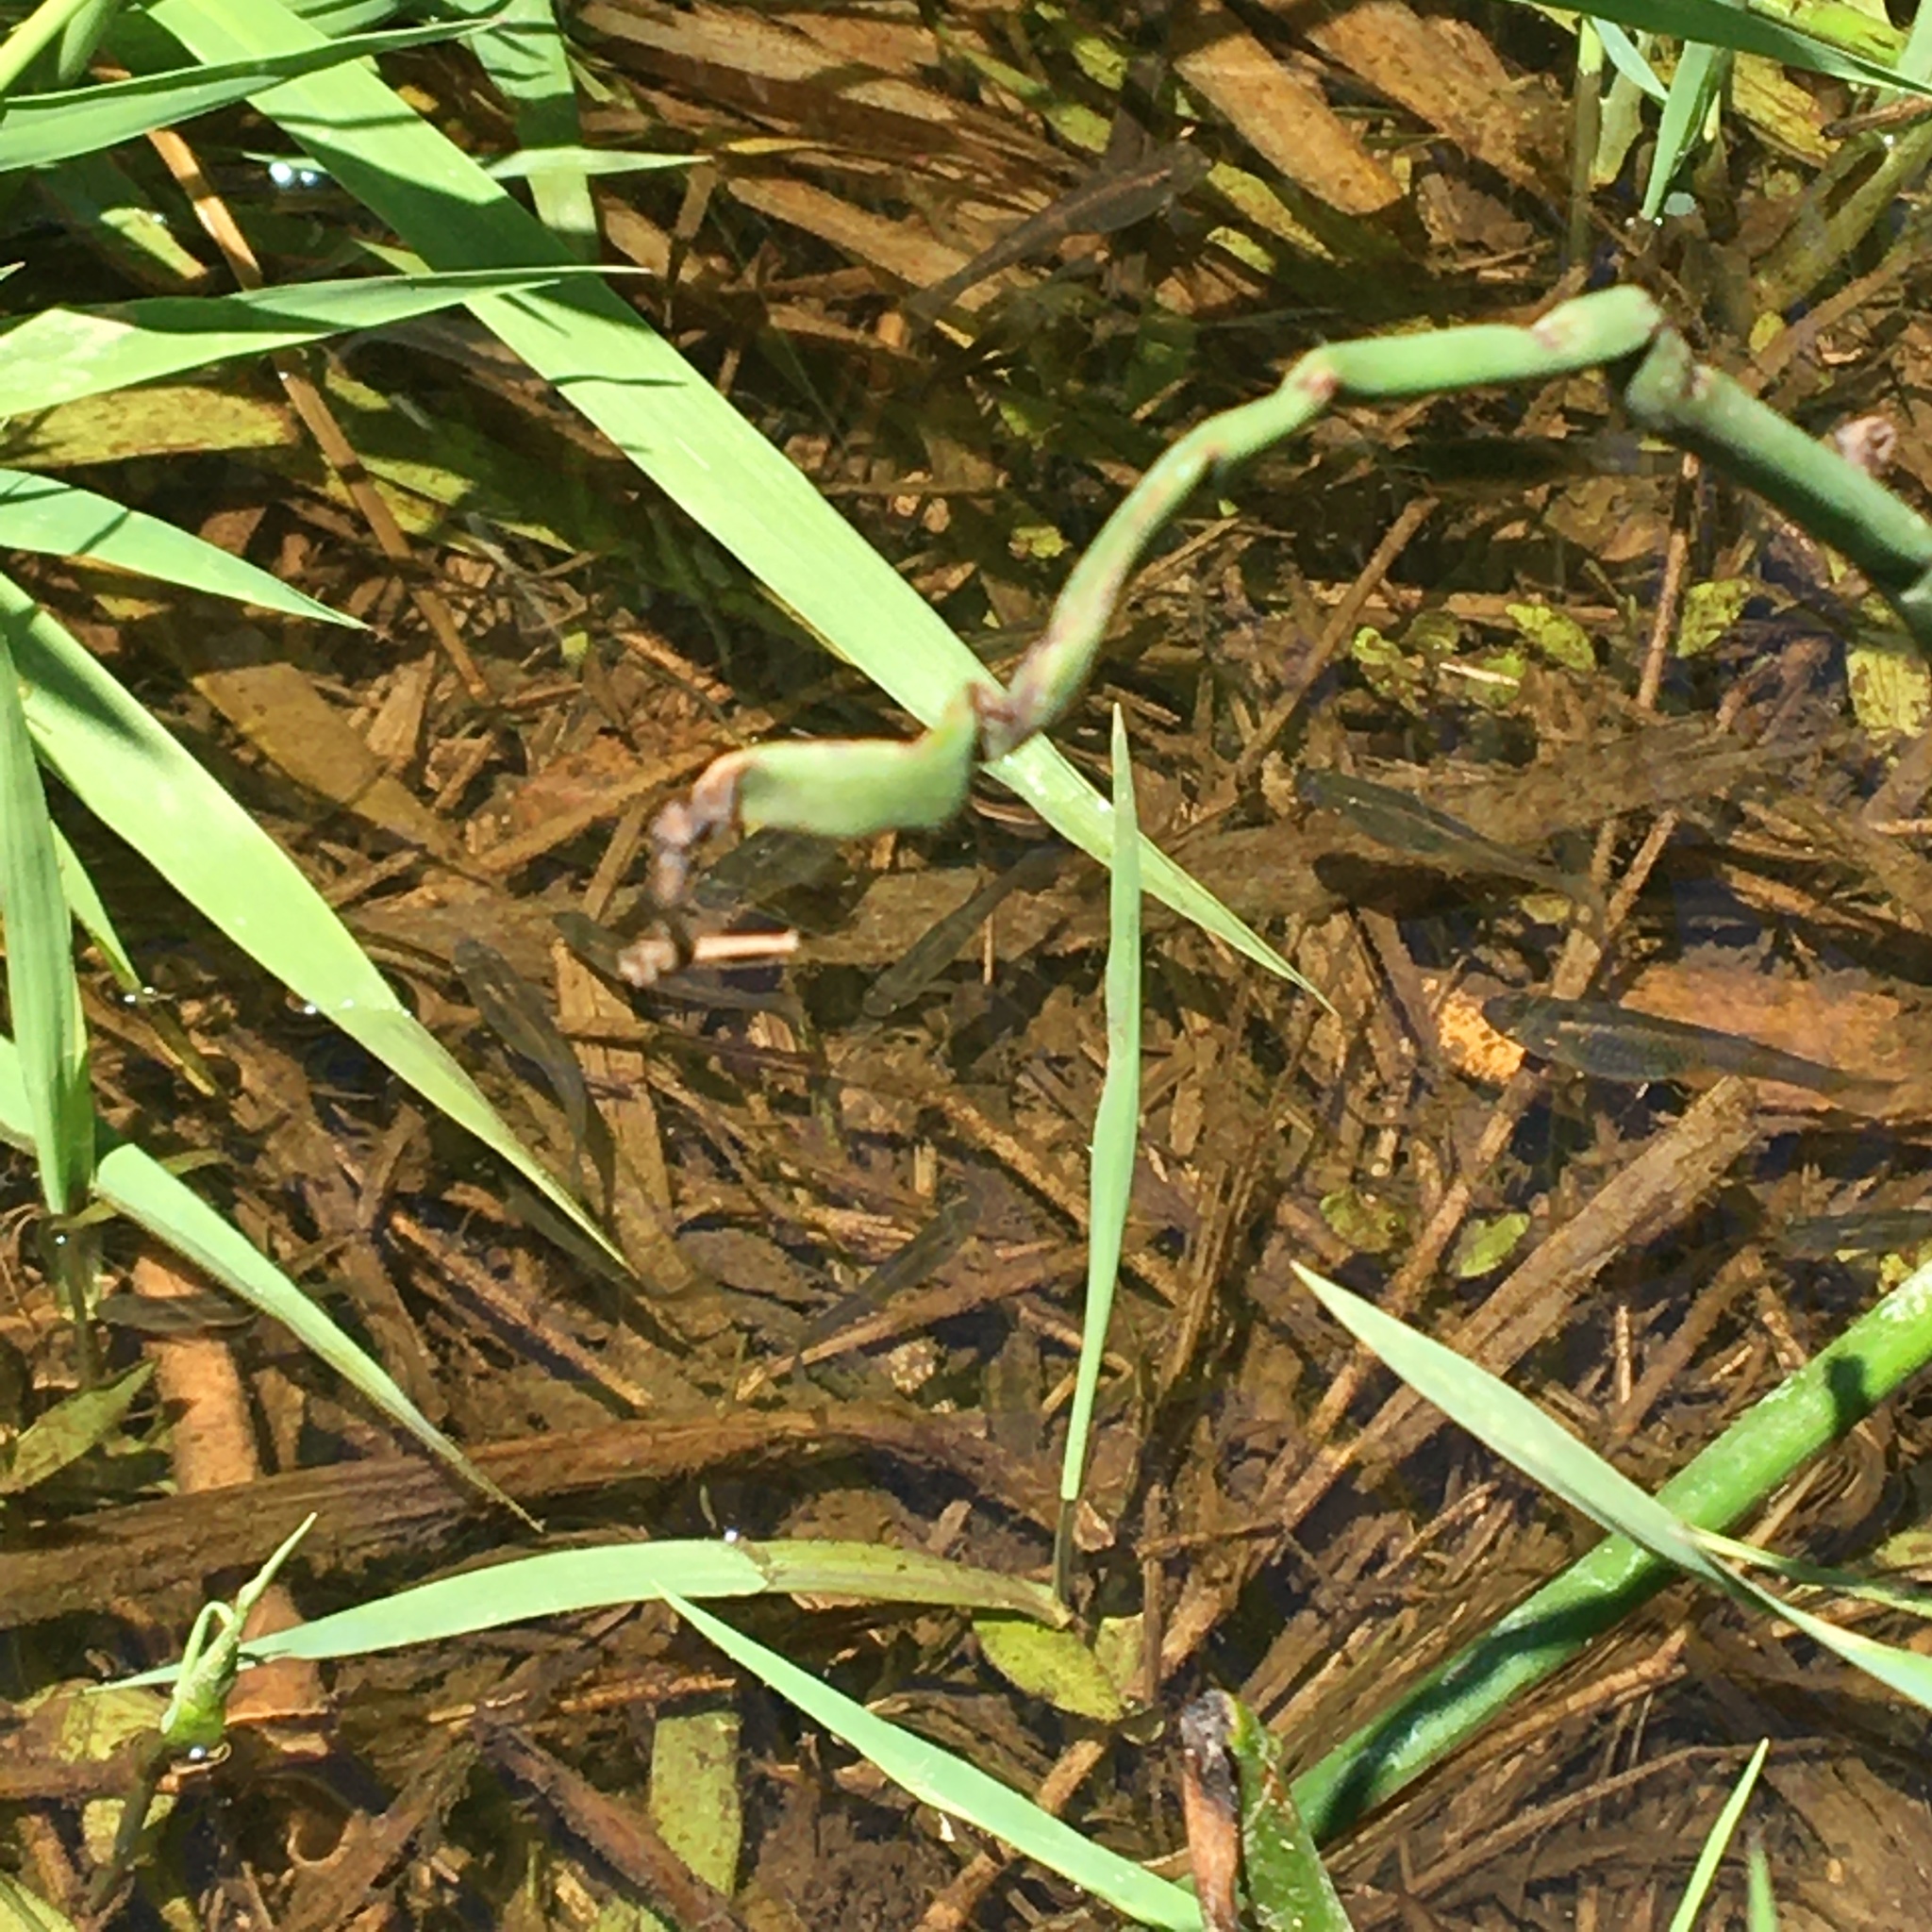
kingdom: Animalia
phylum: Chordata
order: Cyprinodontiformes
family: Poeciliidae
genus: Gambusia
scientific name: Gambusia affinis
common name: Mosquitofish
